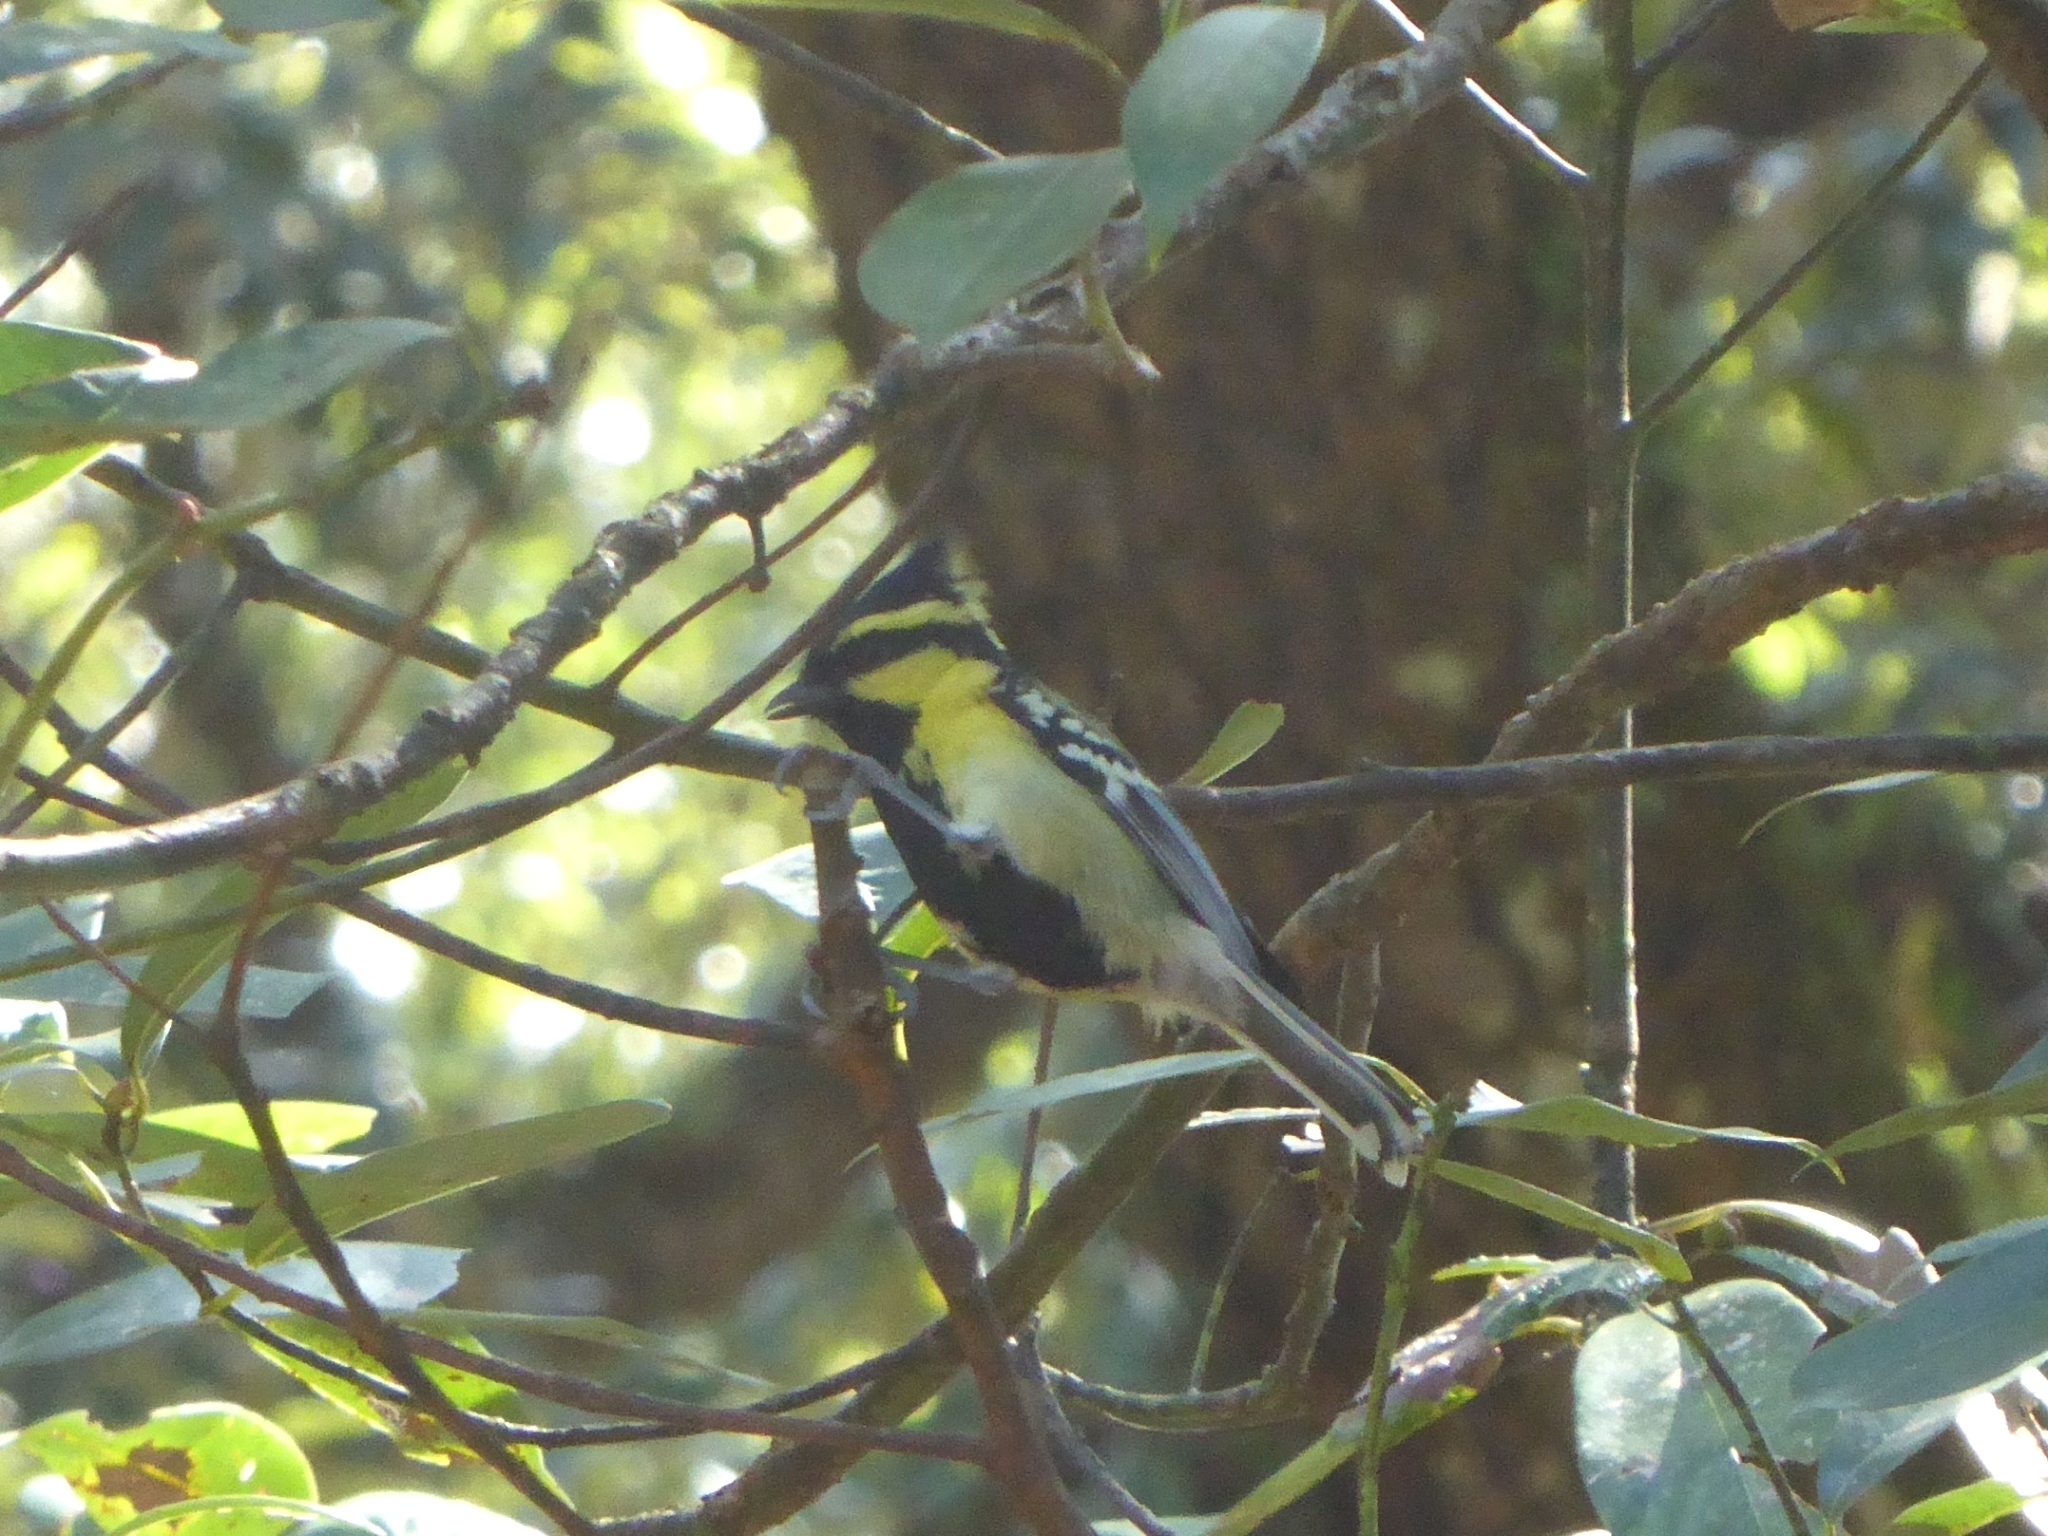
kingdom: Animalia
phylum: Chordata
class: Aves
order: Passeriformes
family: Paridae
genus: Parus
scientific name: Parus xanthogenys
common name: Black-lored tit
